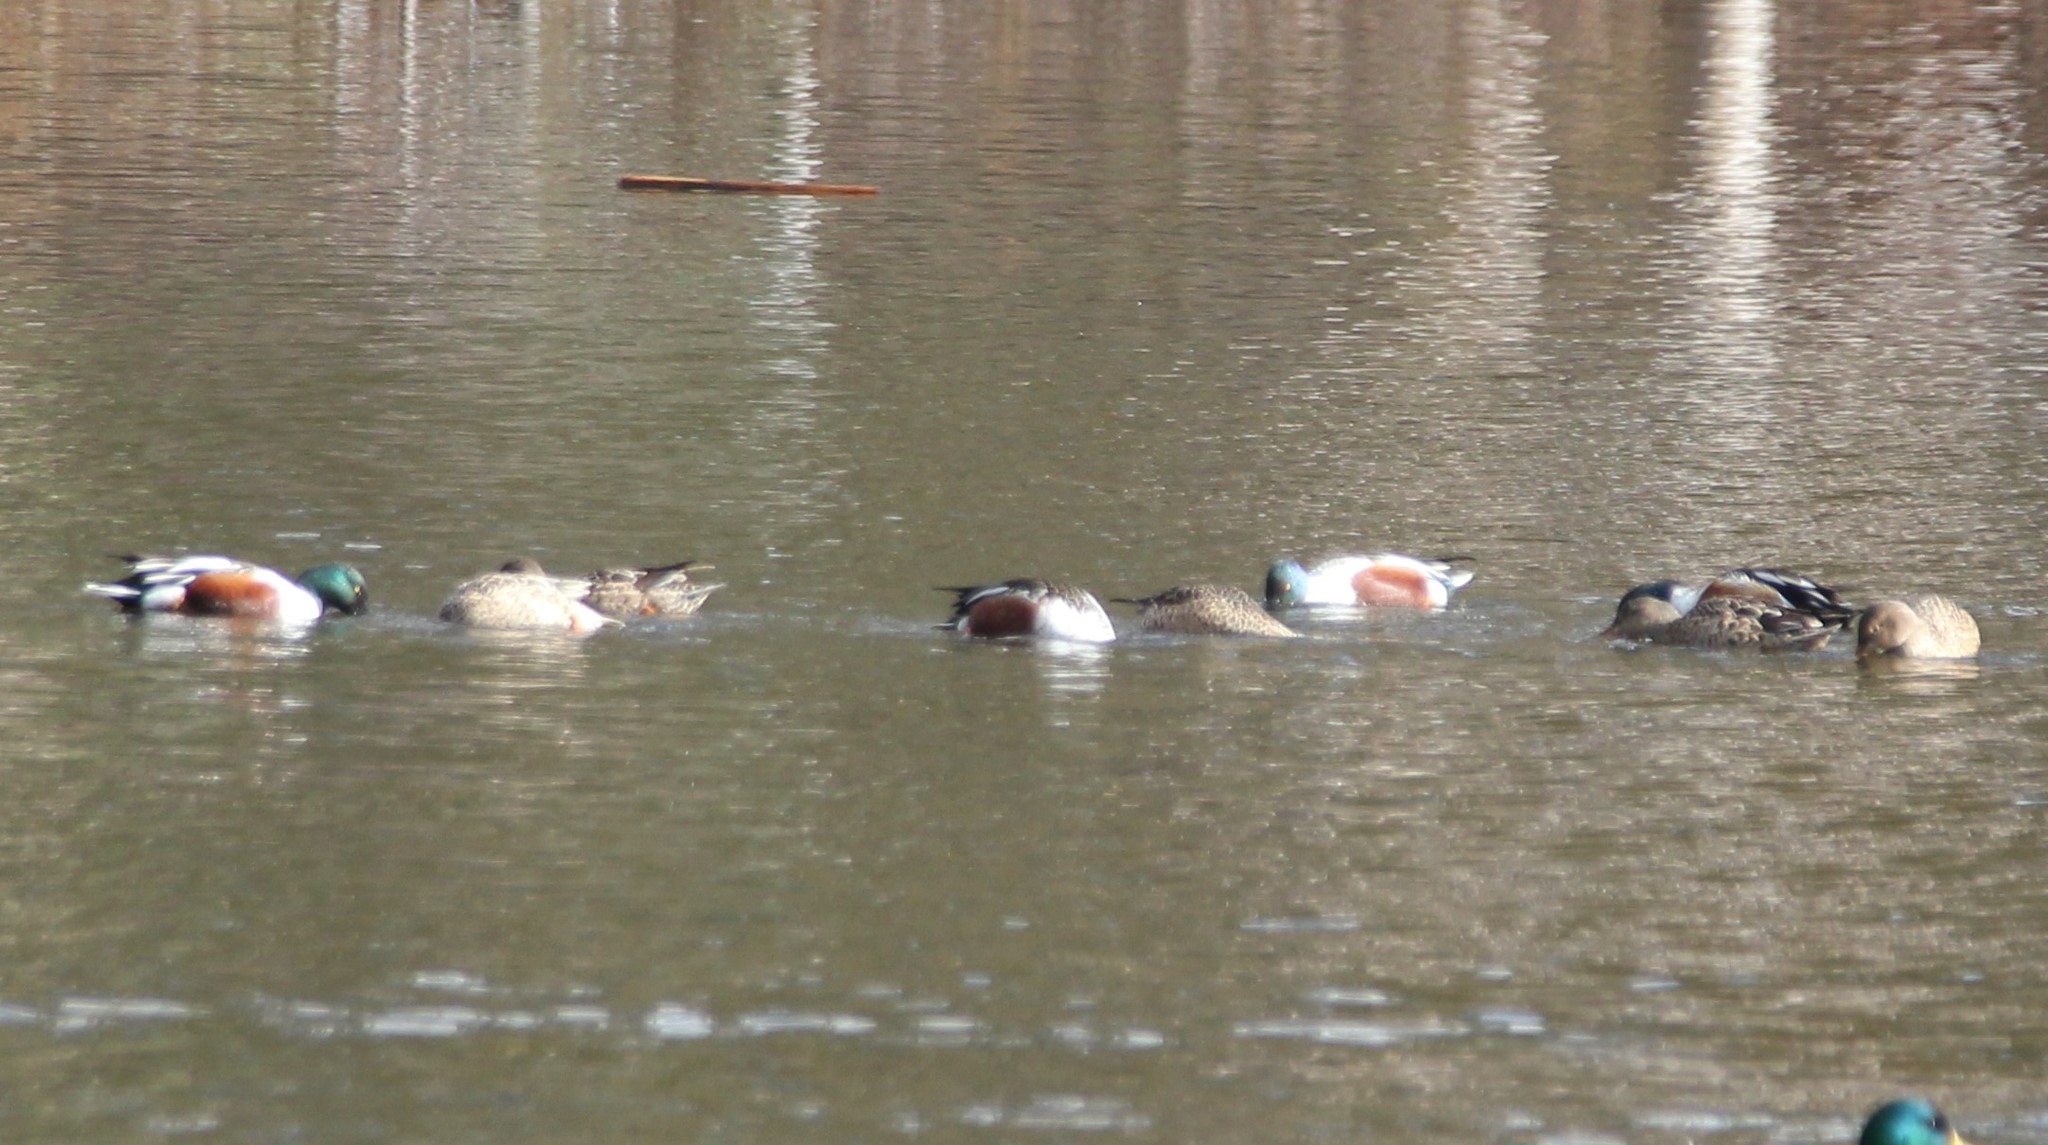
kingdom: Animalia
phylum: Chordata
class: Aves
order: Anseriformes
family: Anatidae
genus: Spatula
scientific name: Spatula clypeata
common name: Northern shoveler
